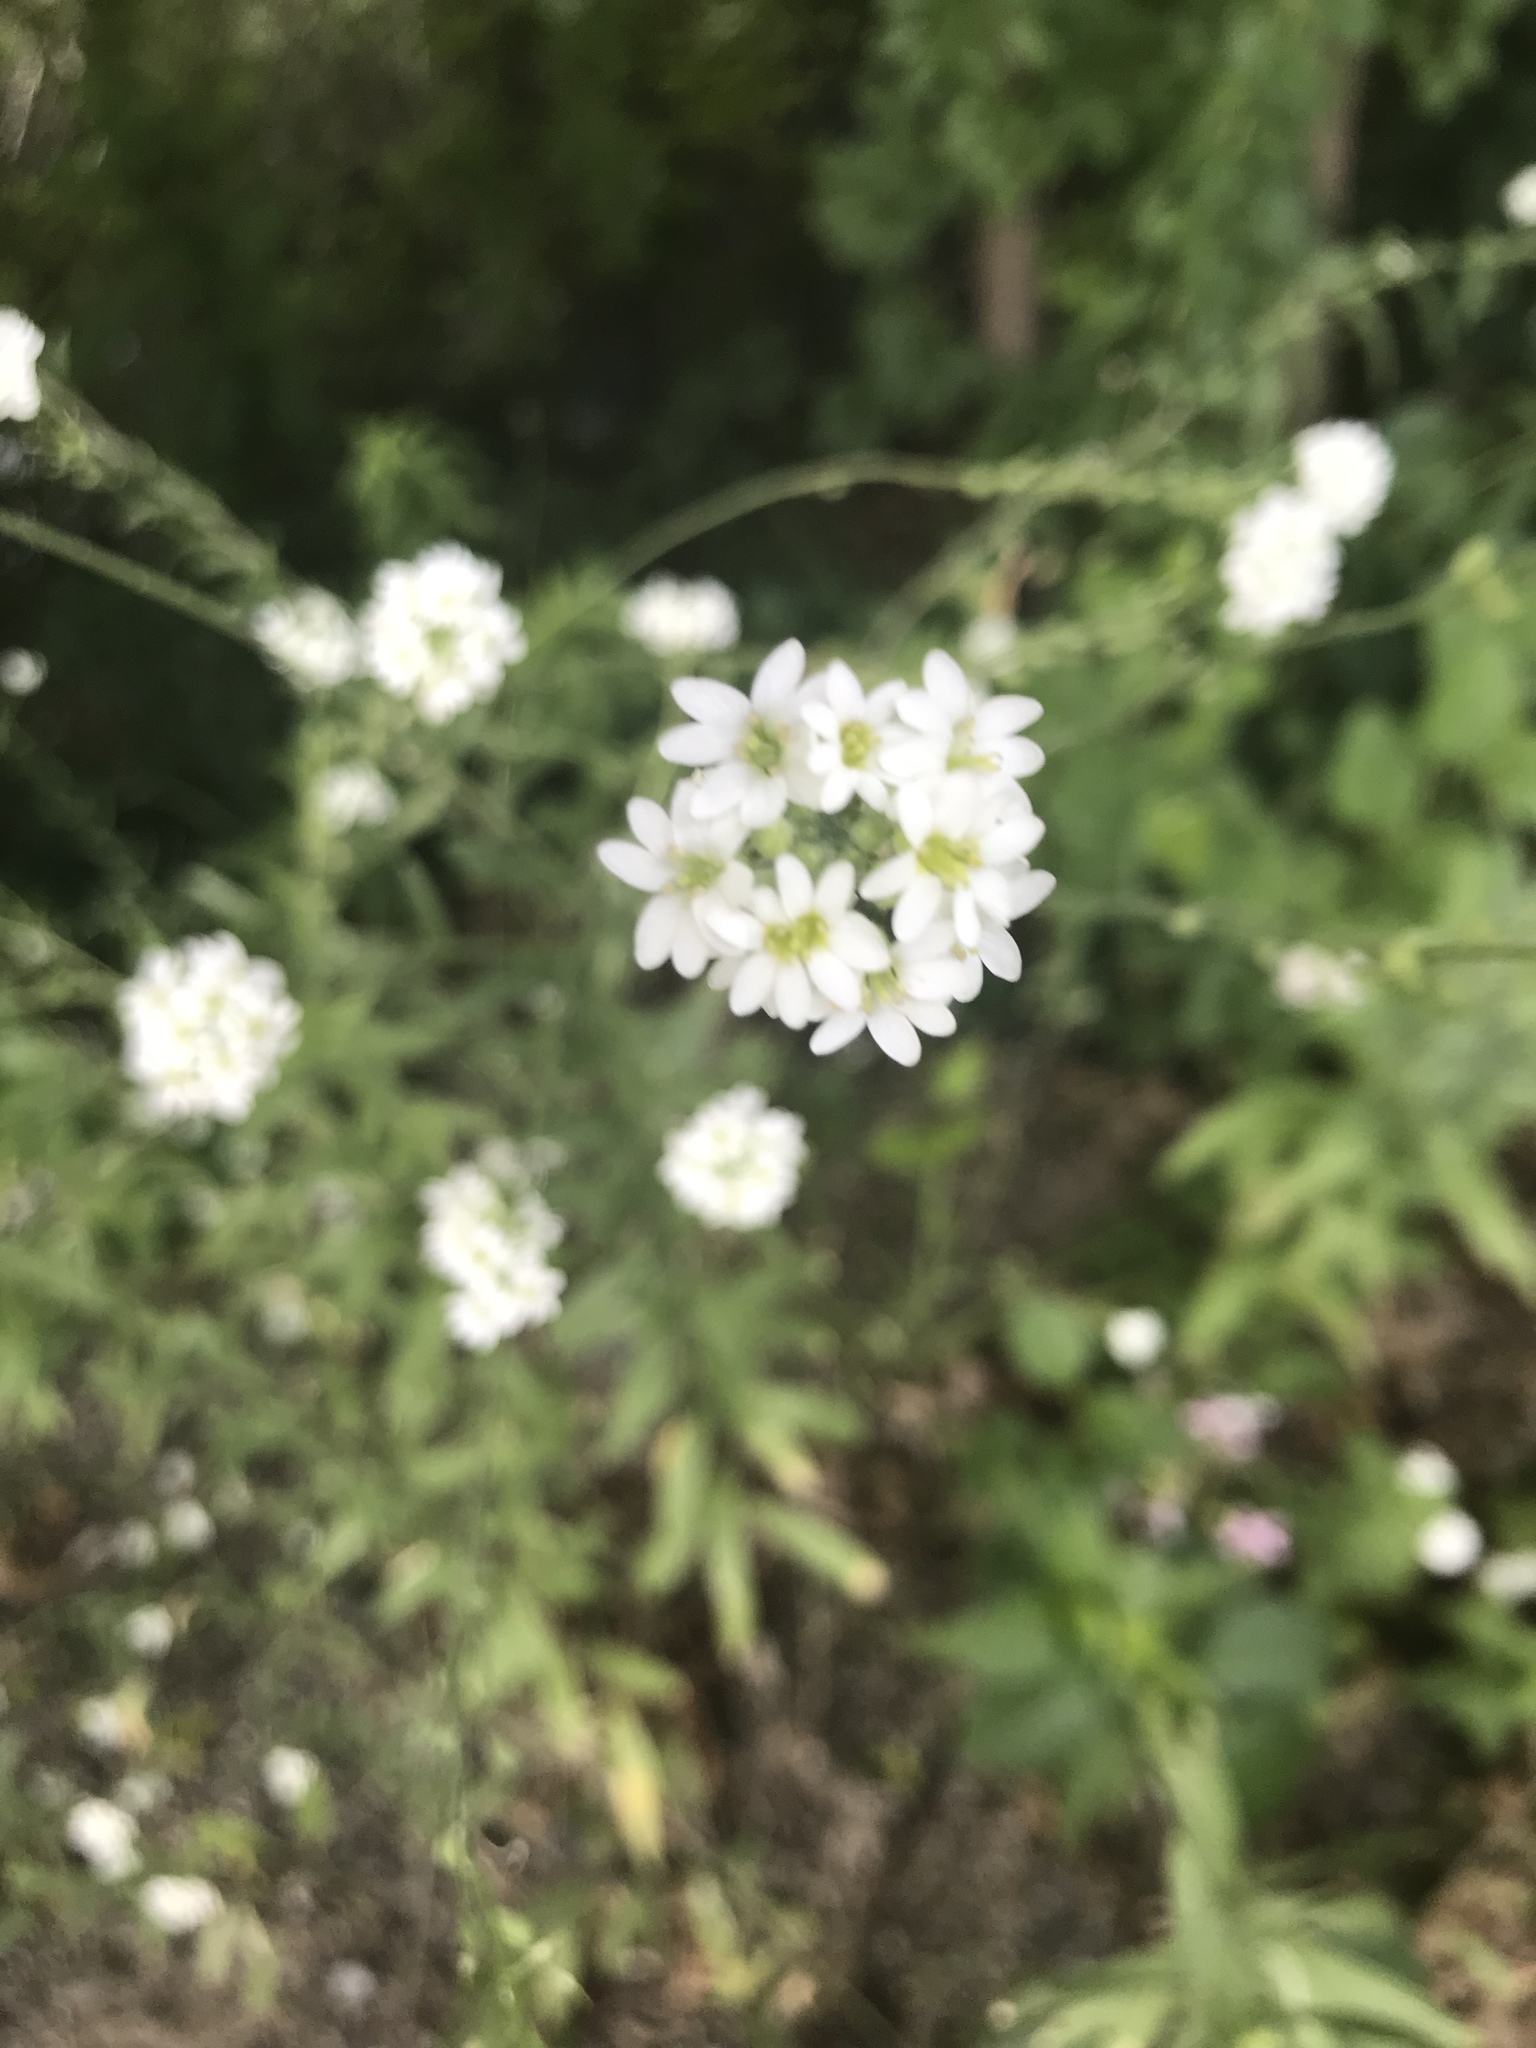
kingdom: Plantae
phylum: Tracheophyta
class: Magnoliopsida
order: Brassicales
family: Brassicaceae
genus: Berteroa
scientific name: Berteroa incana
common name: Hoary alison
